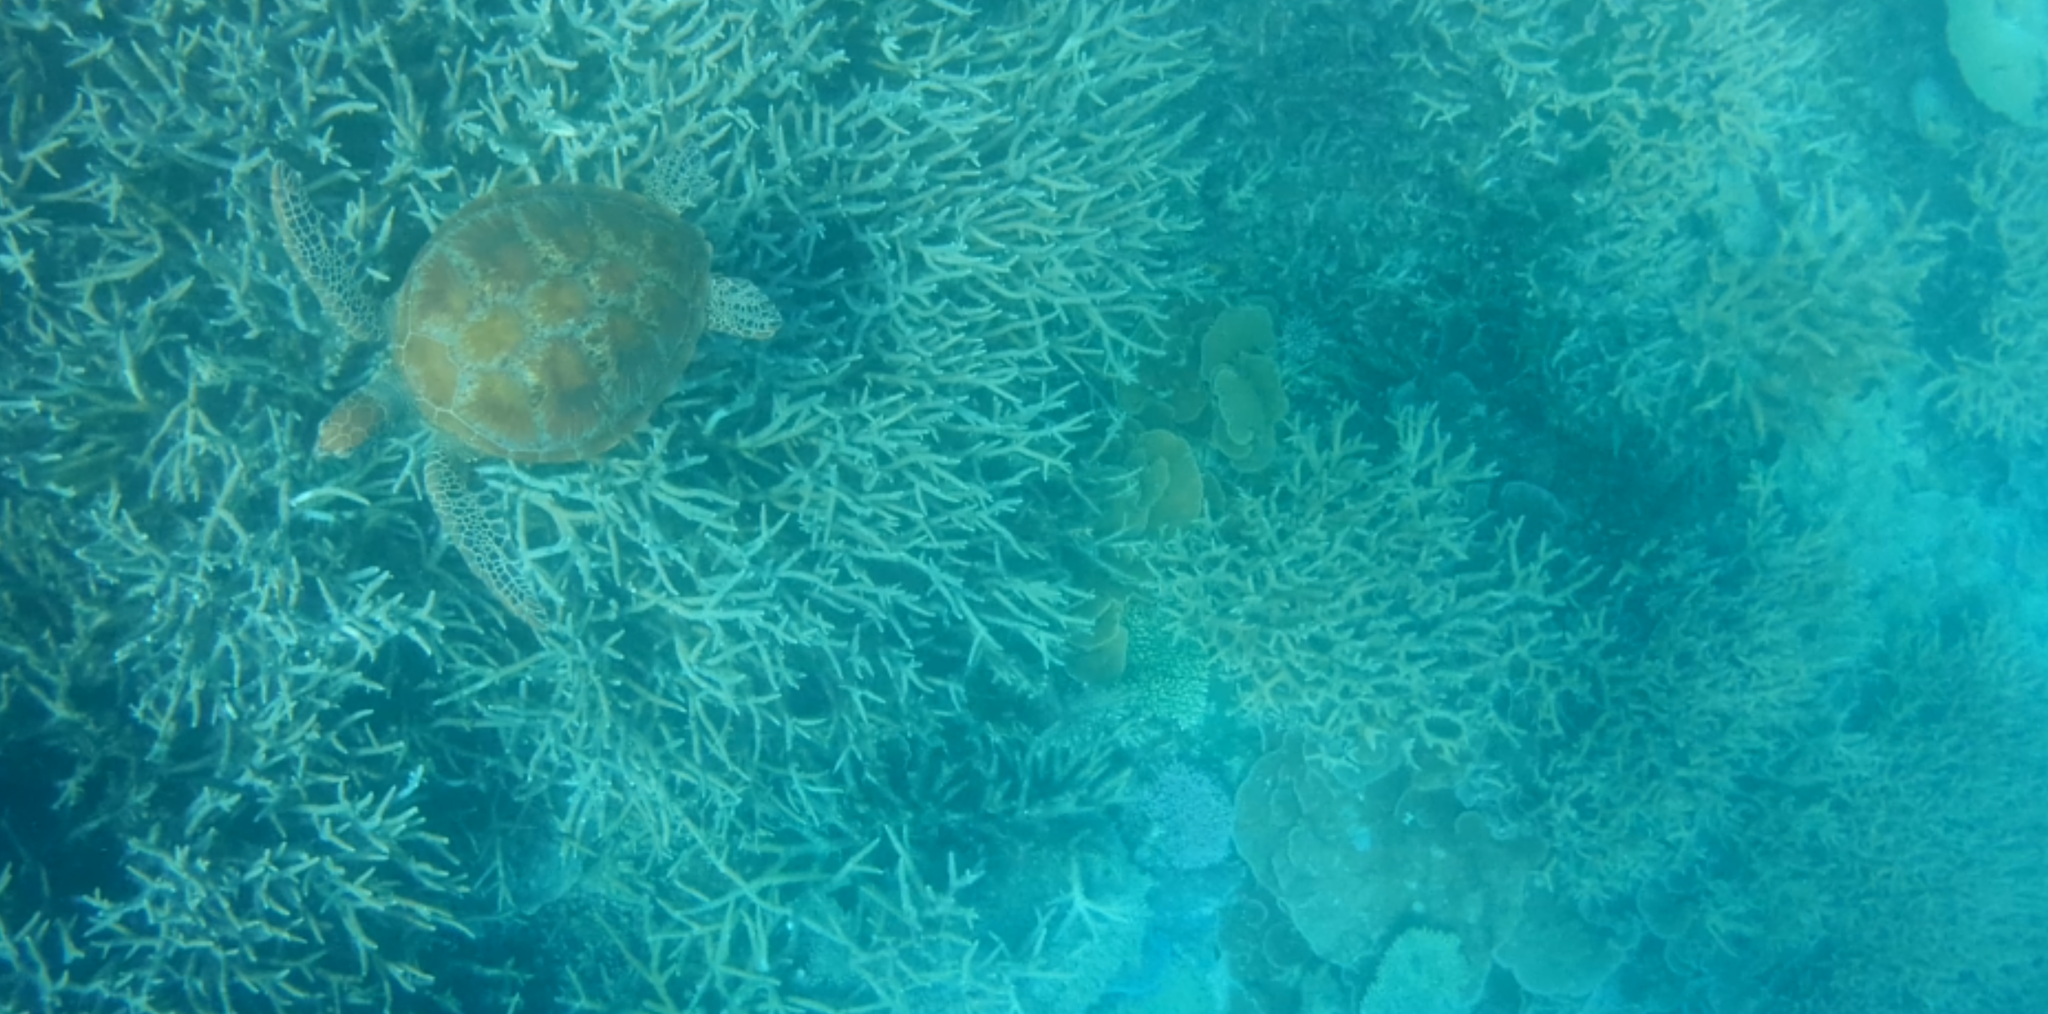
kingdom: Animalia
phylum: Chordata
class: Testudines
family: Cheloniidae
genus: Chelonia
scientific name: Chelonia mydas
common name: Green turtle
